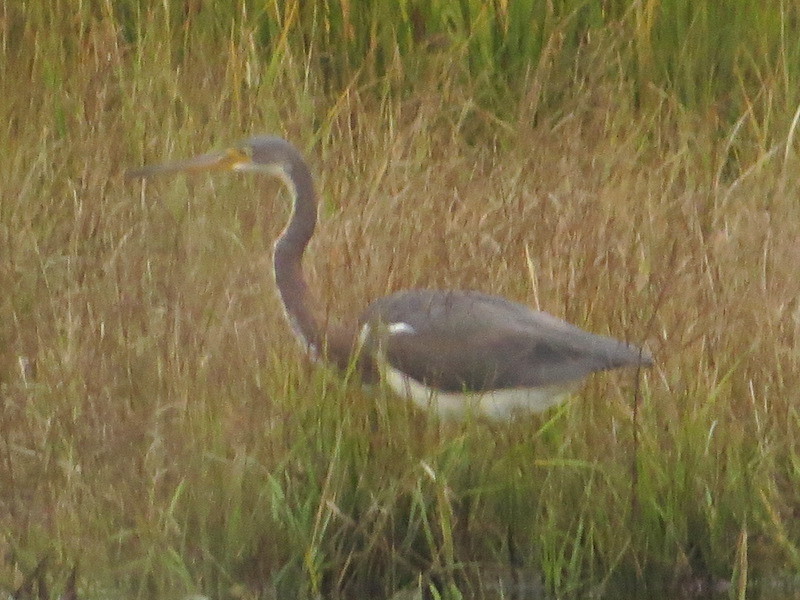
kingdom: Animalia
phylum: Chordata
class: Aves
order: Pelecaniformes
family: Ardeidae
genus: Egretta
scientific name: Egretta tricolor
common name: Tricolored heron
